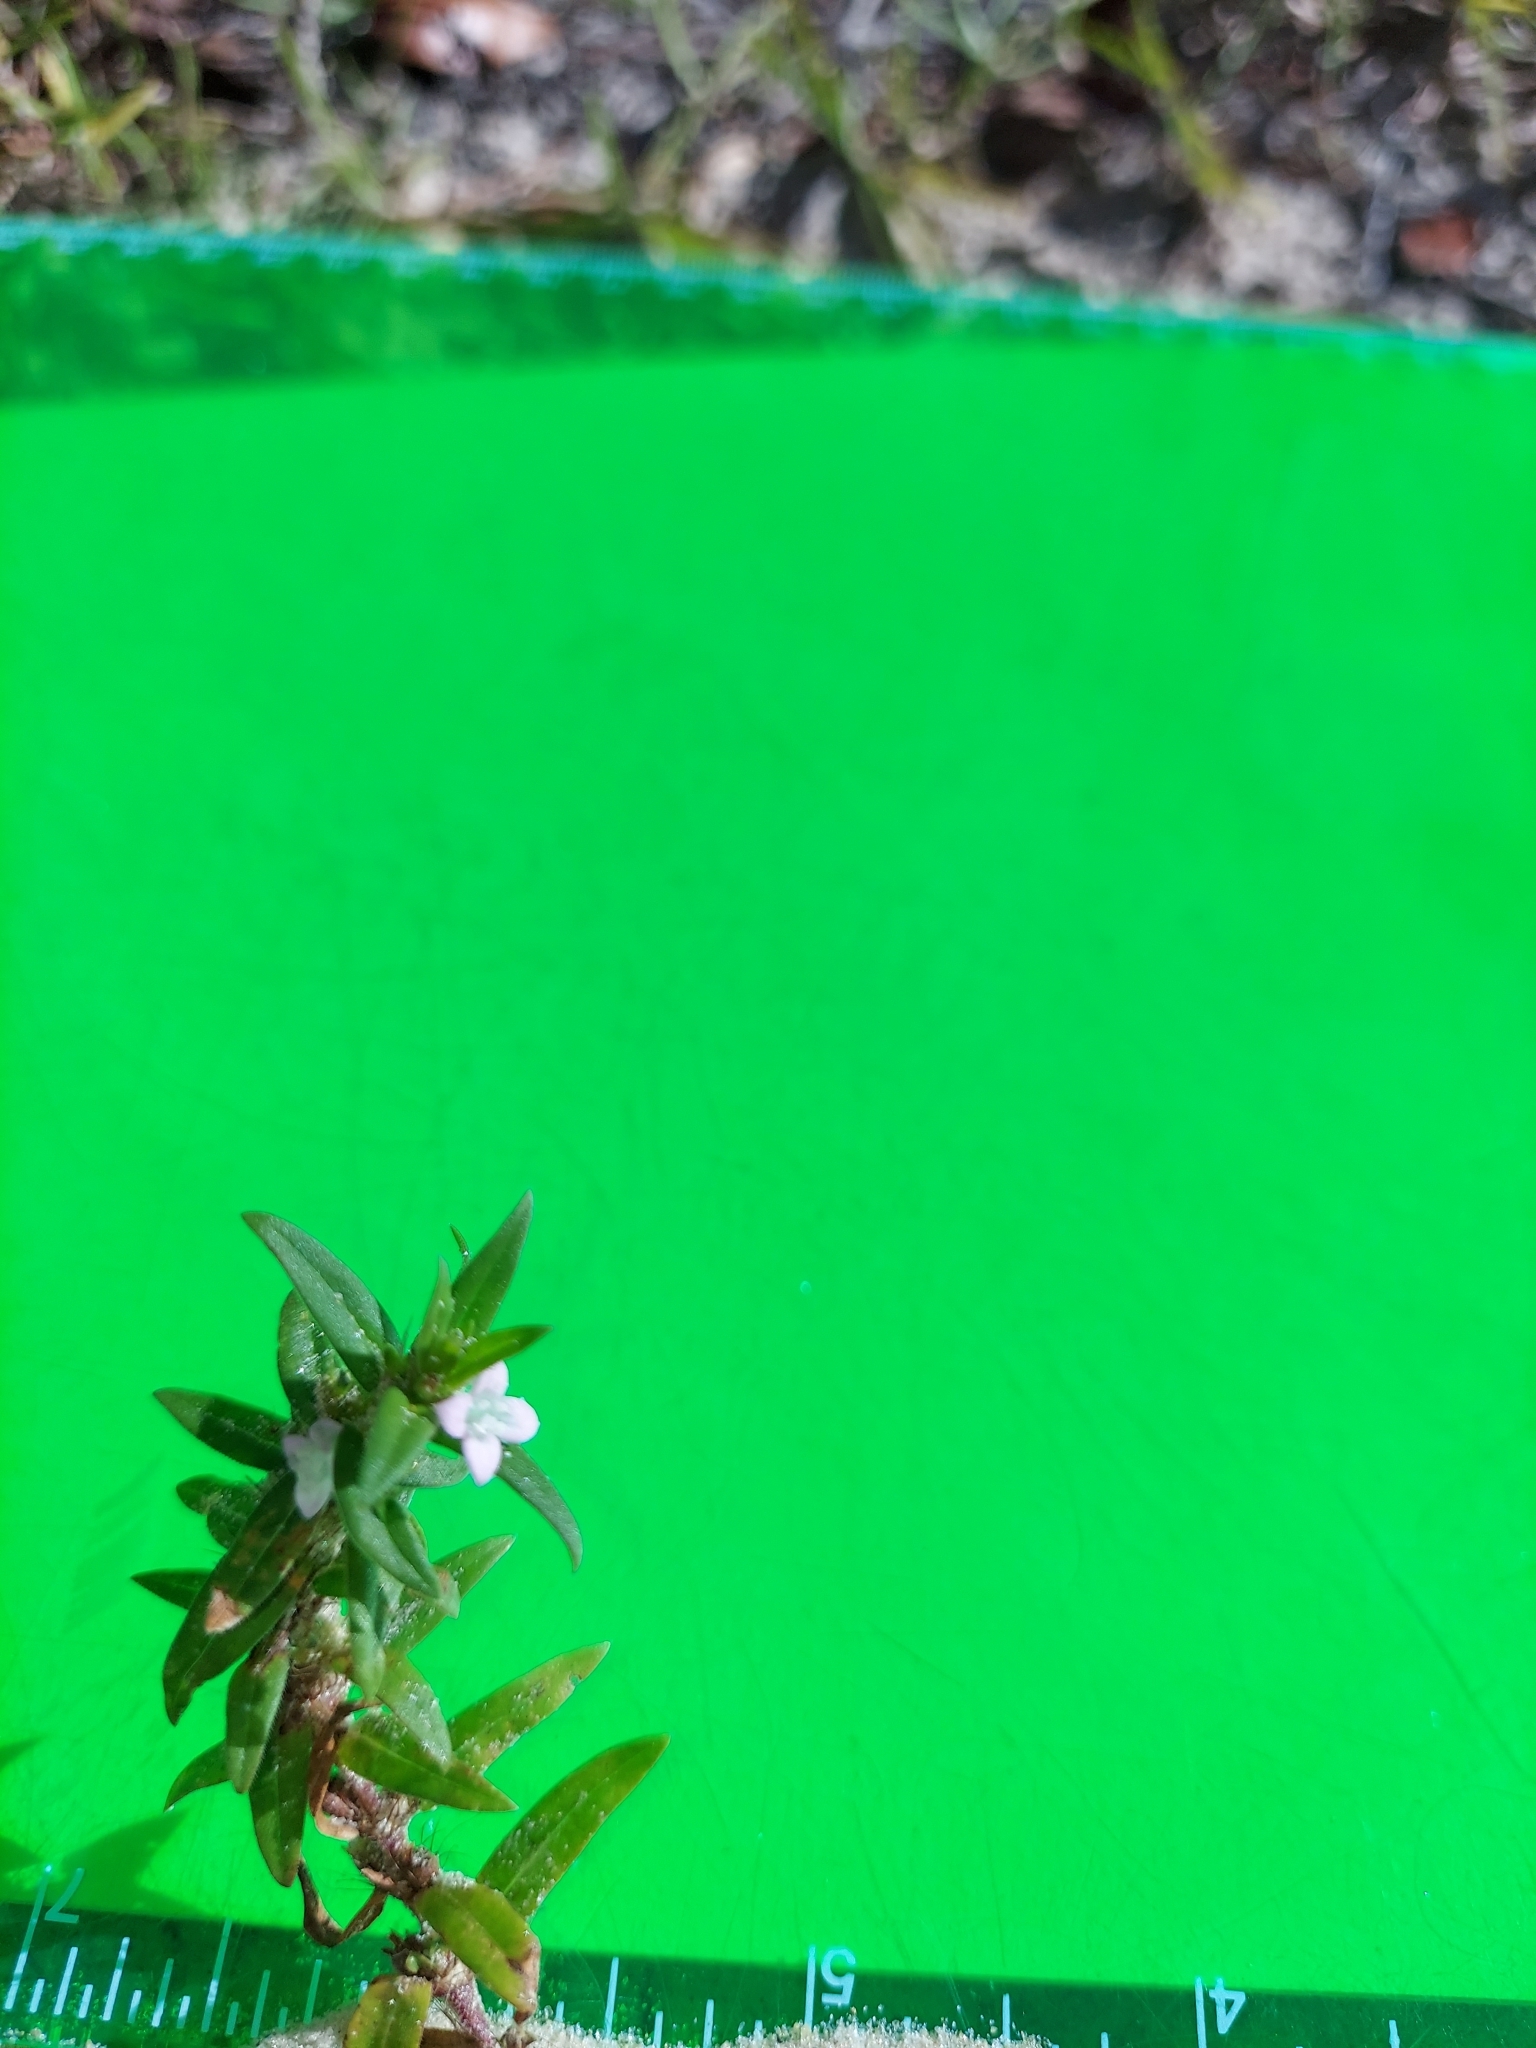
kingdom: Plantae
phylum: Tracheophyta
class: Magnoliopsida
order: Gentianales
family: Rubiaceae
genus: Hexasepalum
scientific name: Hexasepalum teres
